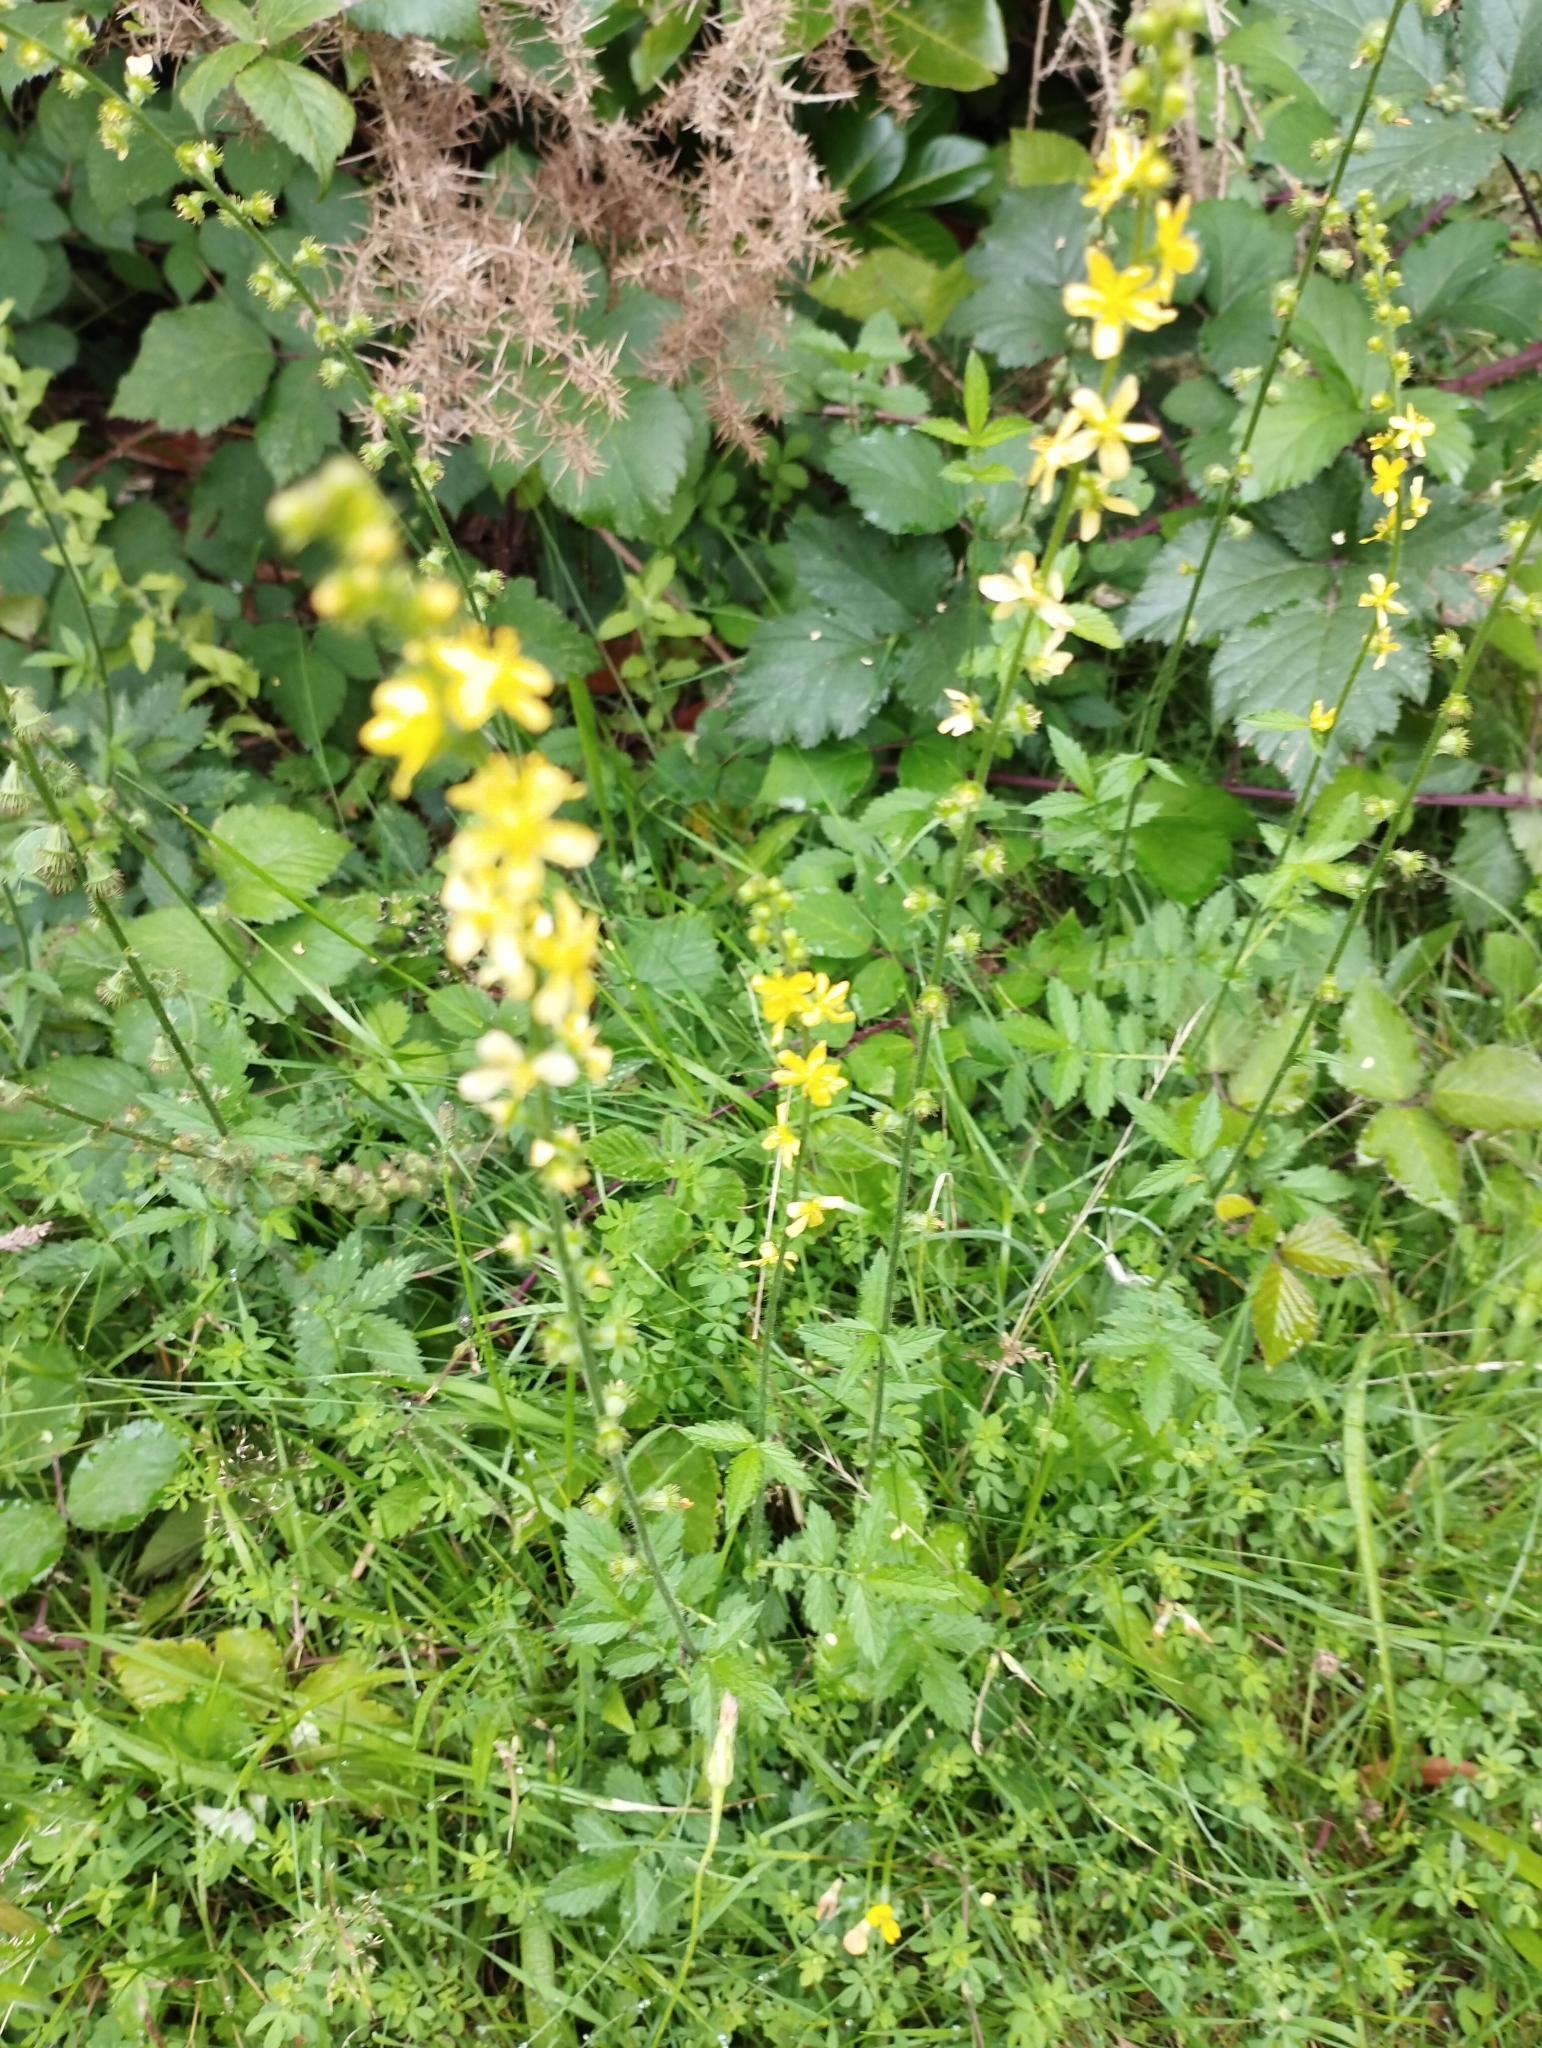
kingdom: Plantae
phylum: Tracheophyta
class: Magnoliopsida
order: Rosales
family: Rosaceae
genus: Agrimonia
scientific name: Agrimonia eupatoria
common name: Agrimony
